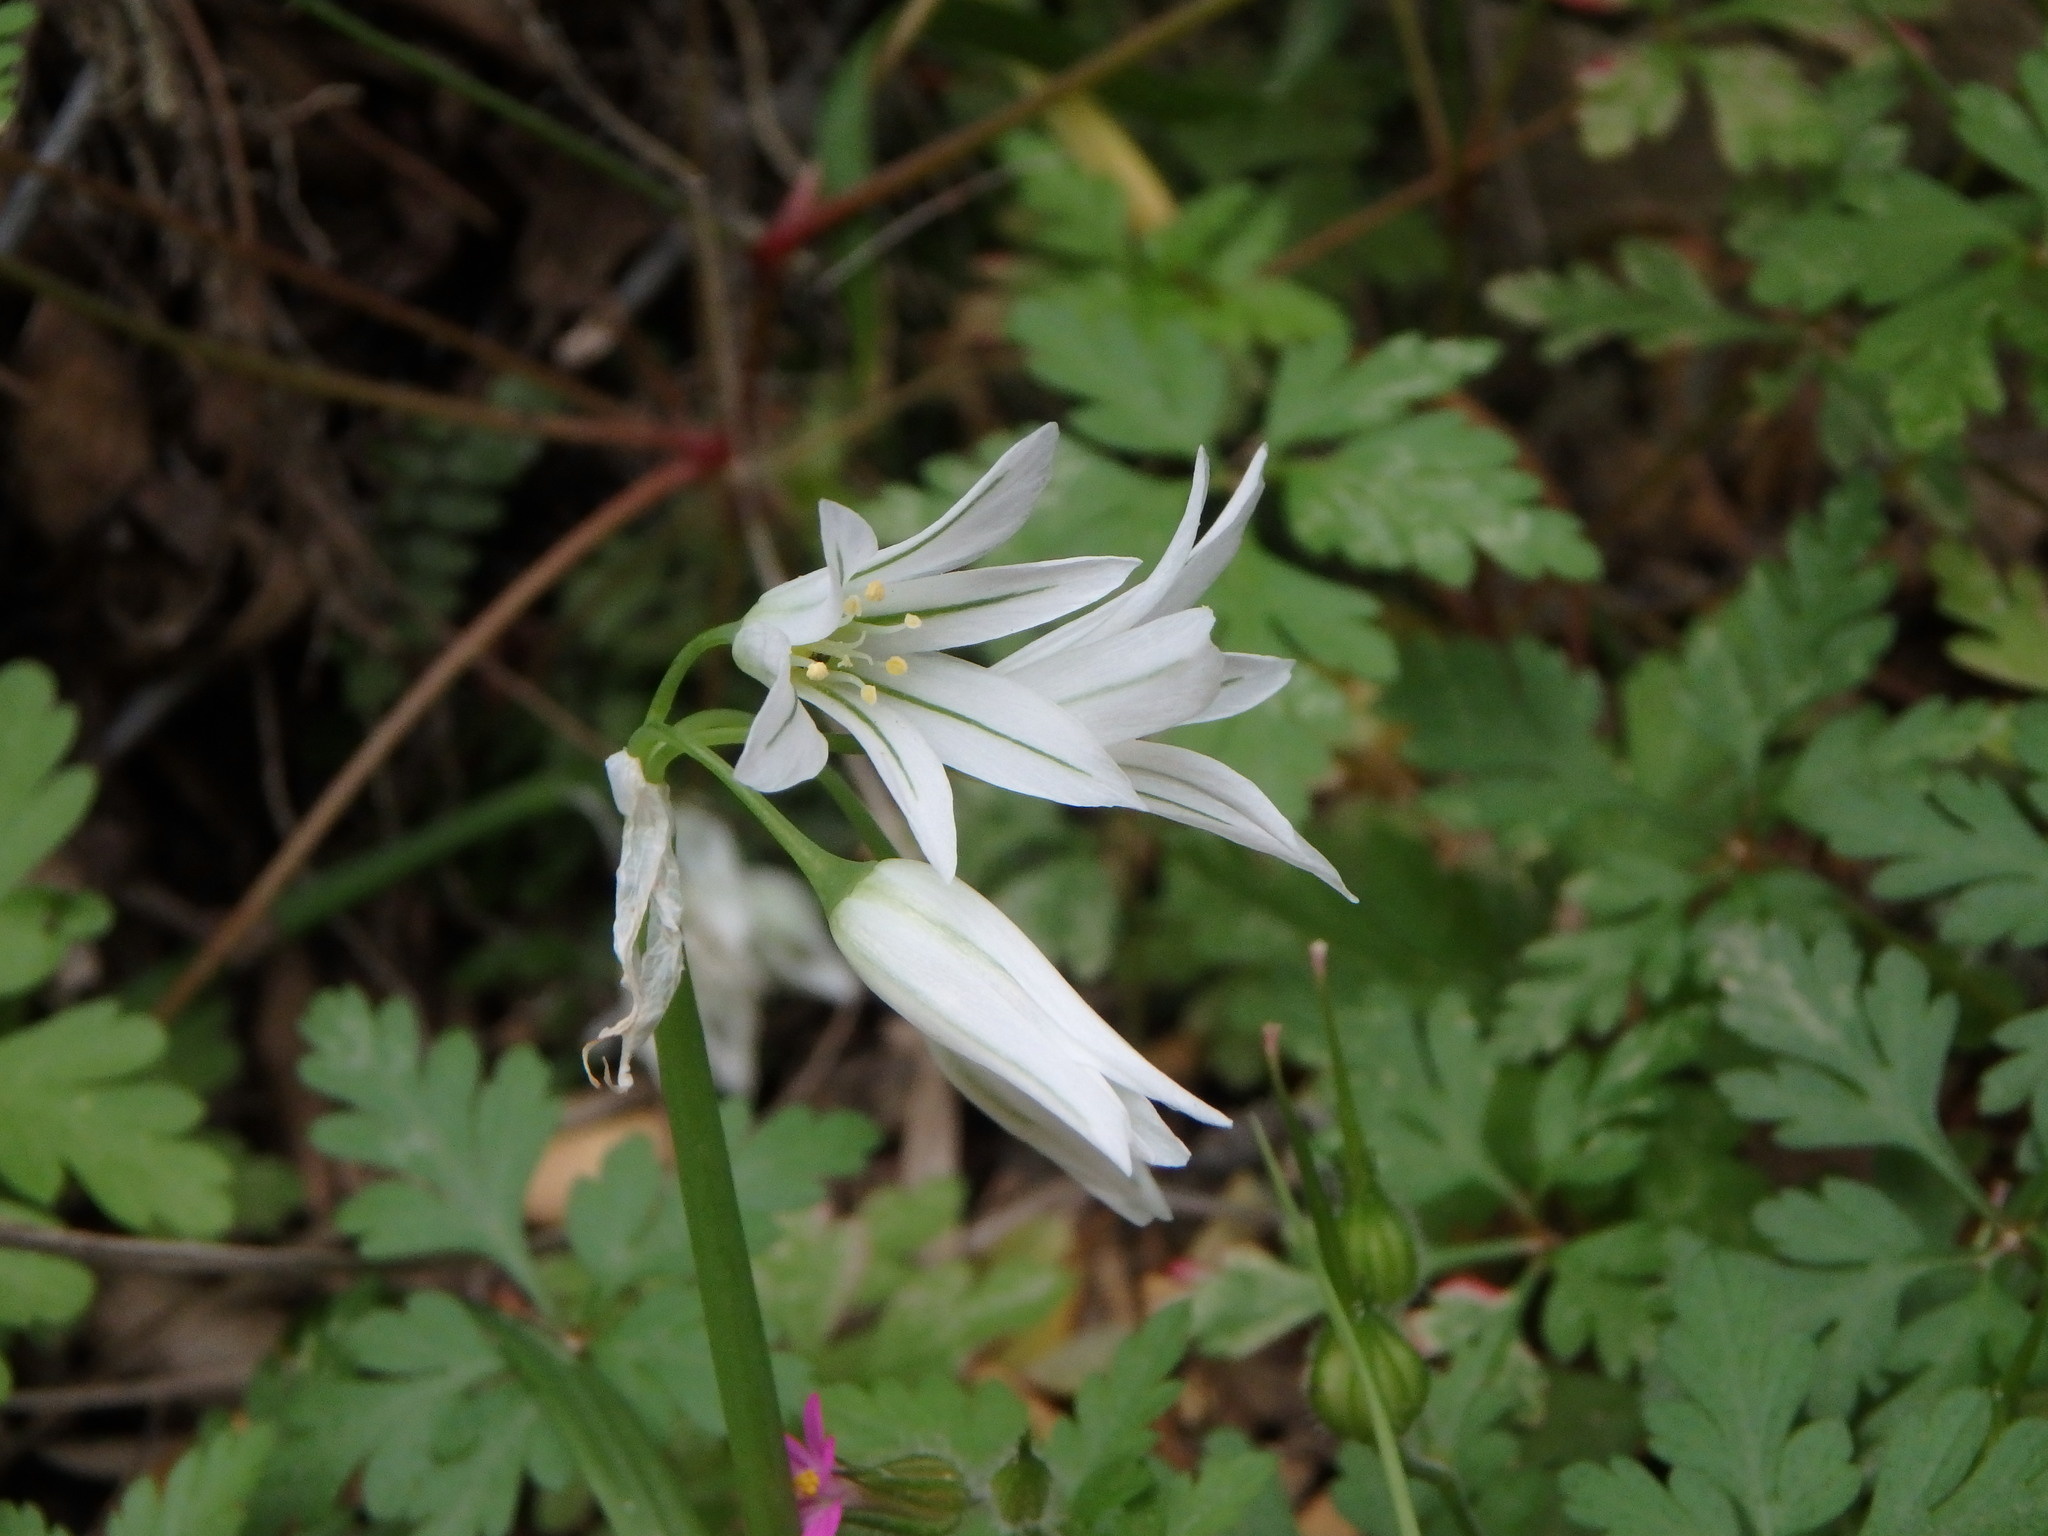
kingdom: Plantae
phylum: Tracheophyta
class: Liliopsida
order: Asparagales
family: Amaryllidaceae
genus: Allium
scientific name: Allium triquetrum
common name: Three-cornered garlic
